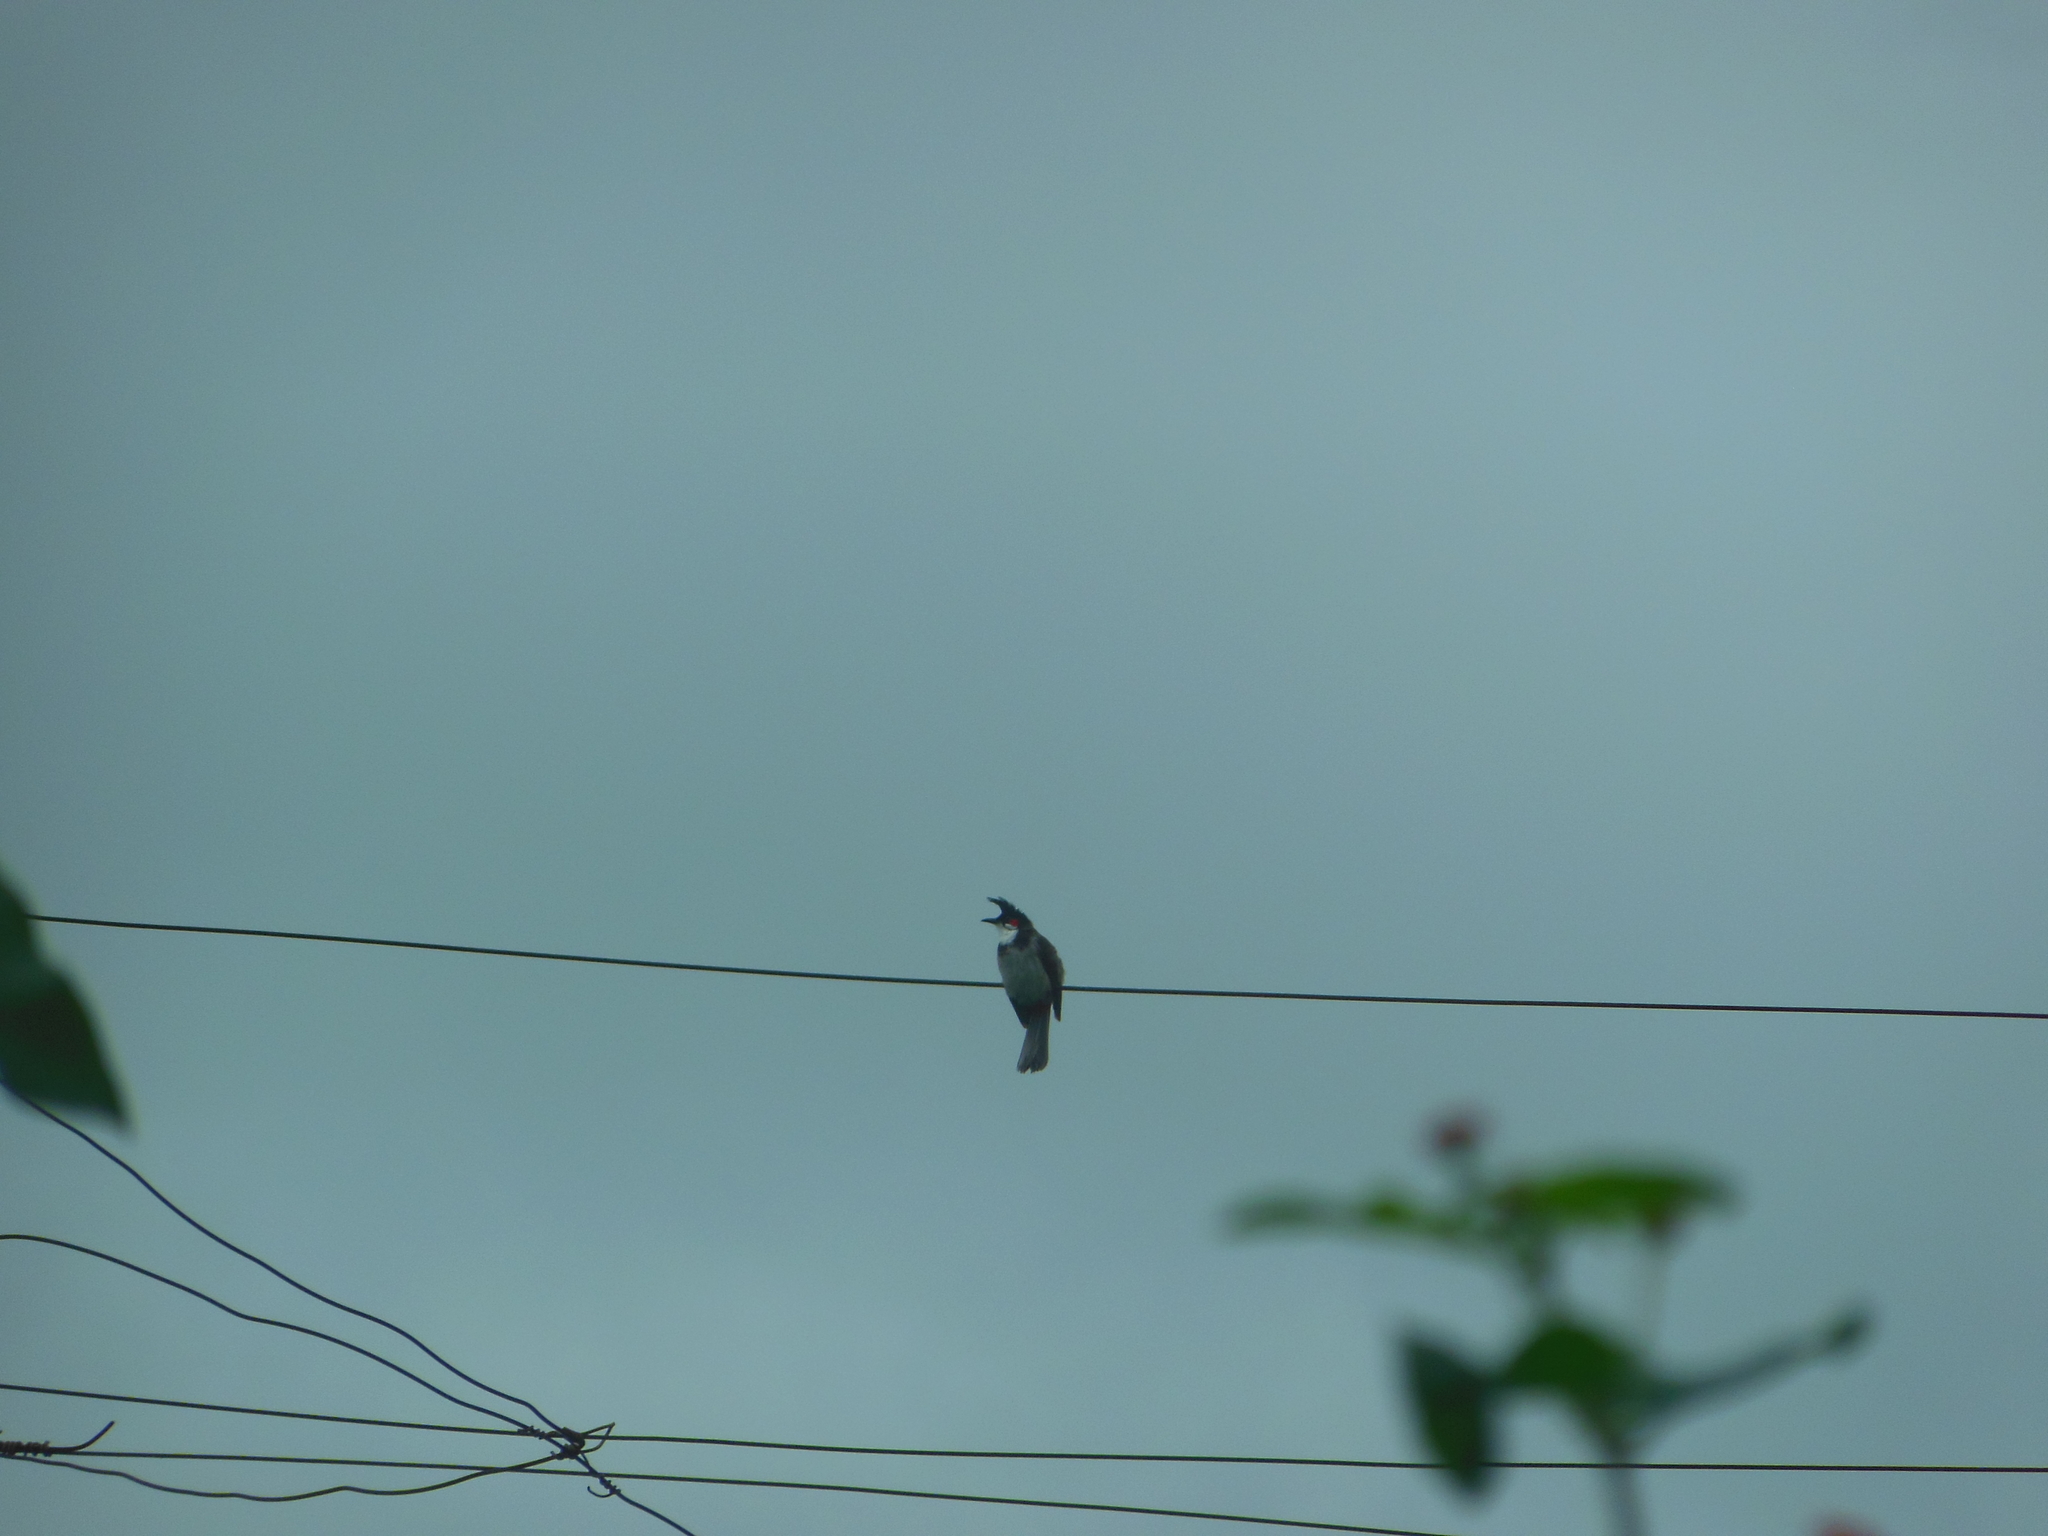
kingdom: Animalia
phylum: Chordata
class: Aves
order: Passeriformes
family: Pycnonotidae
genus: Pycnonotus
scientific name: Pycnonotus jocosus
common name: Red-whiskered bulbul
